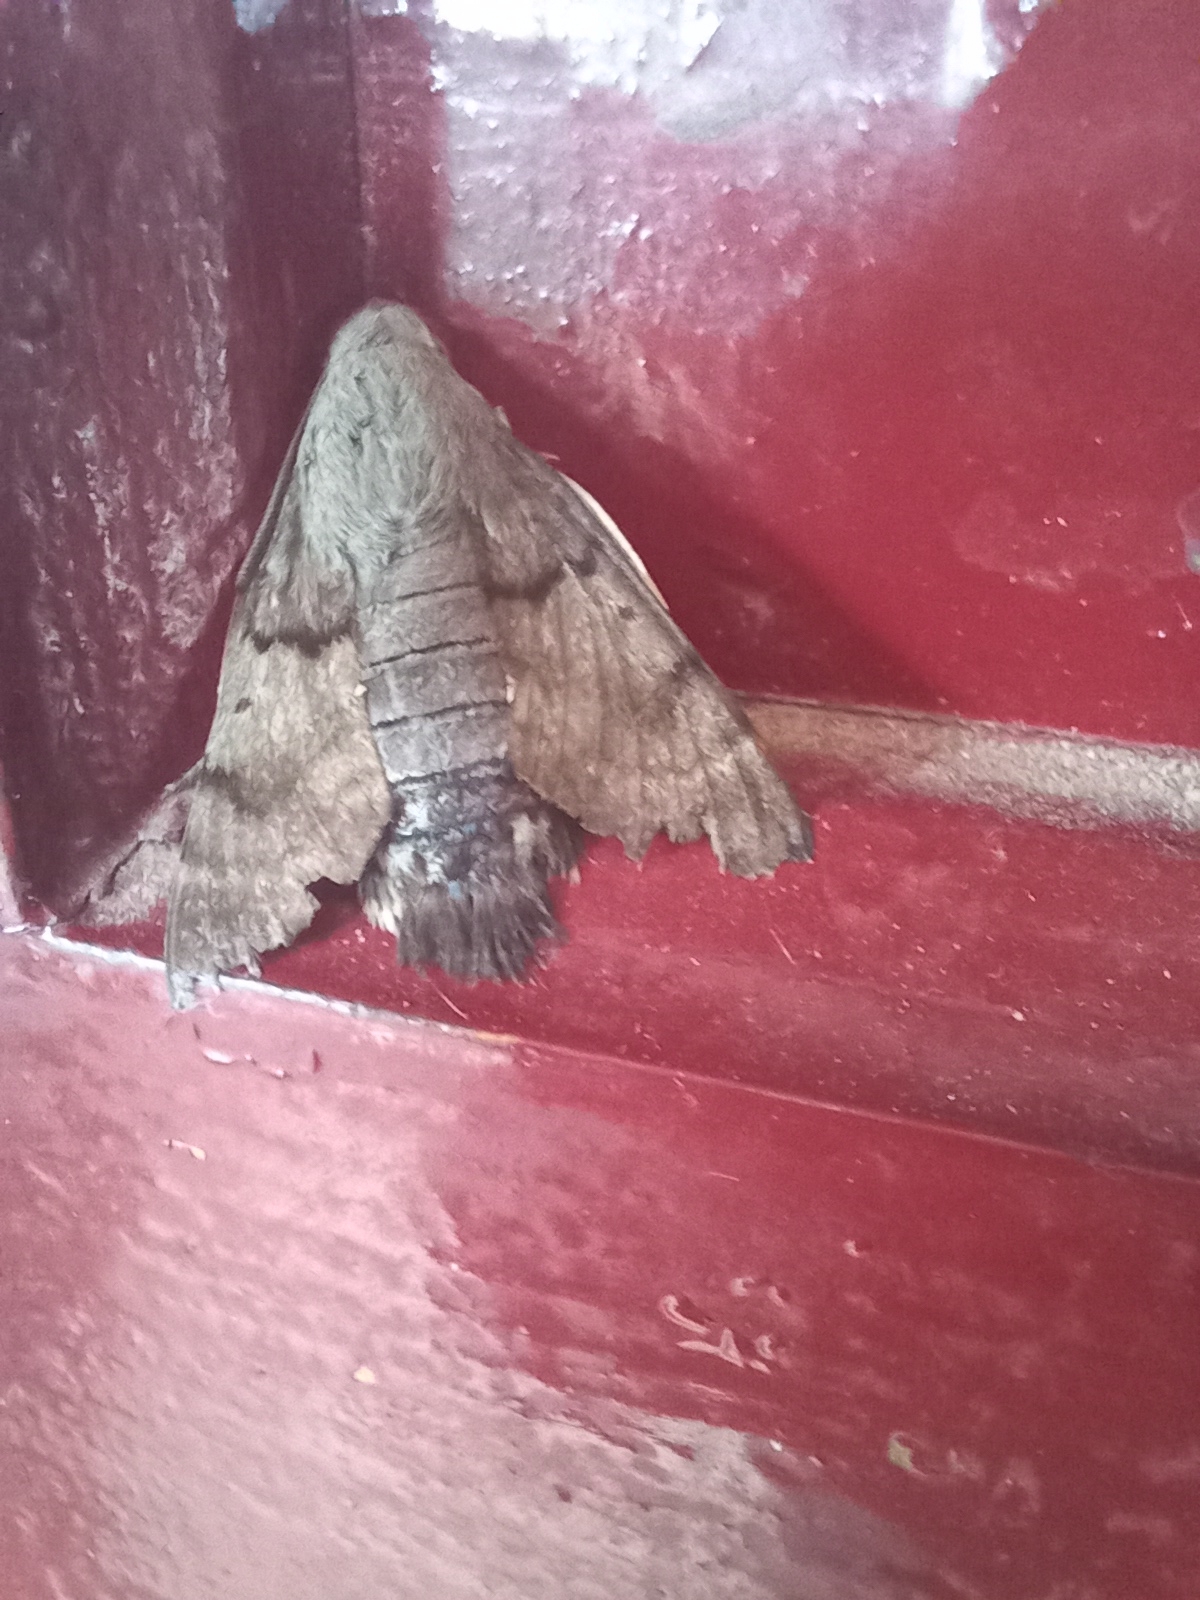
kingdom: Animalia
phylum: Arthropoda
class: Insecta
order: Lepidoptera
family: Sphingidae
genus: Macroglossum
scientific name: Macroglossum stellatarum
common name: Humming-bird hawk-moth
